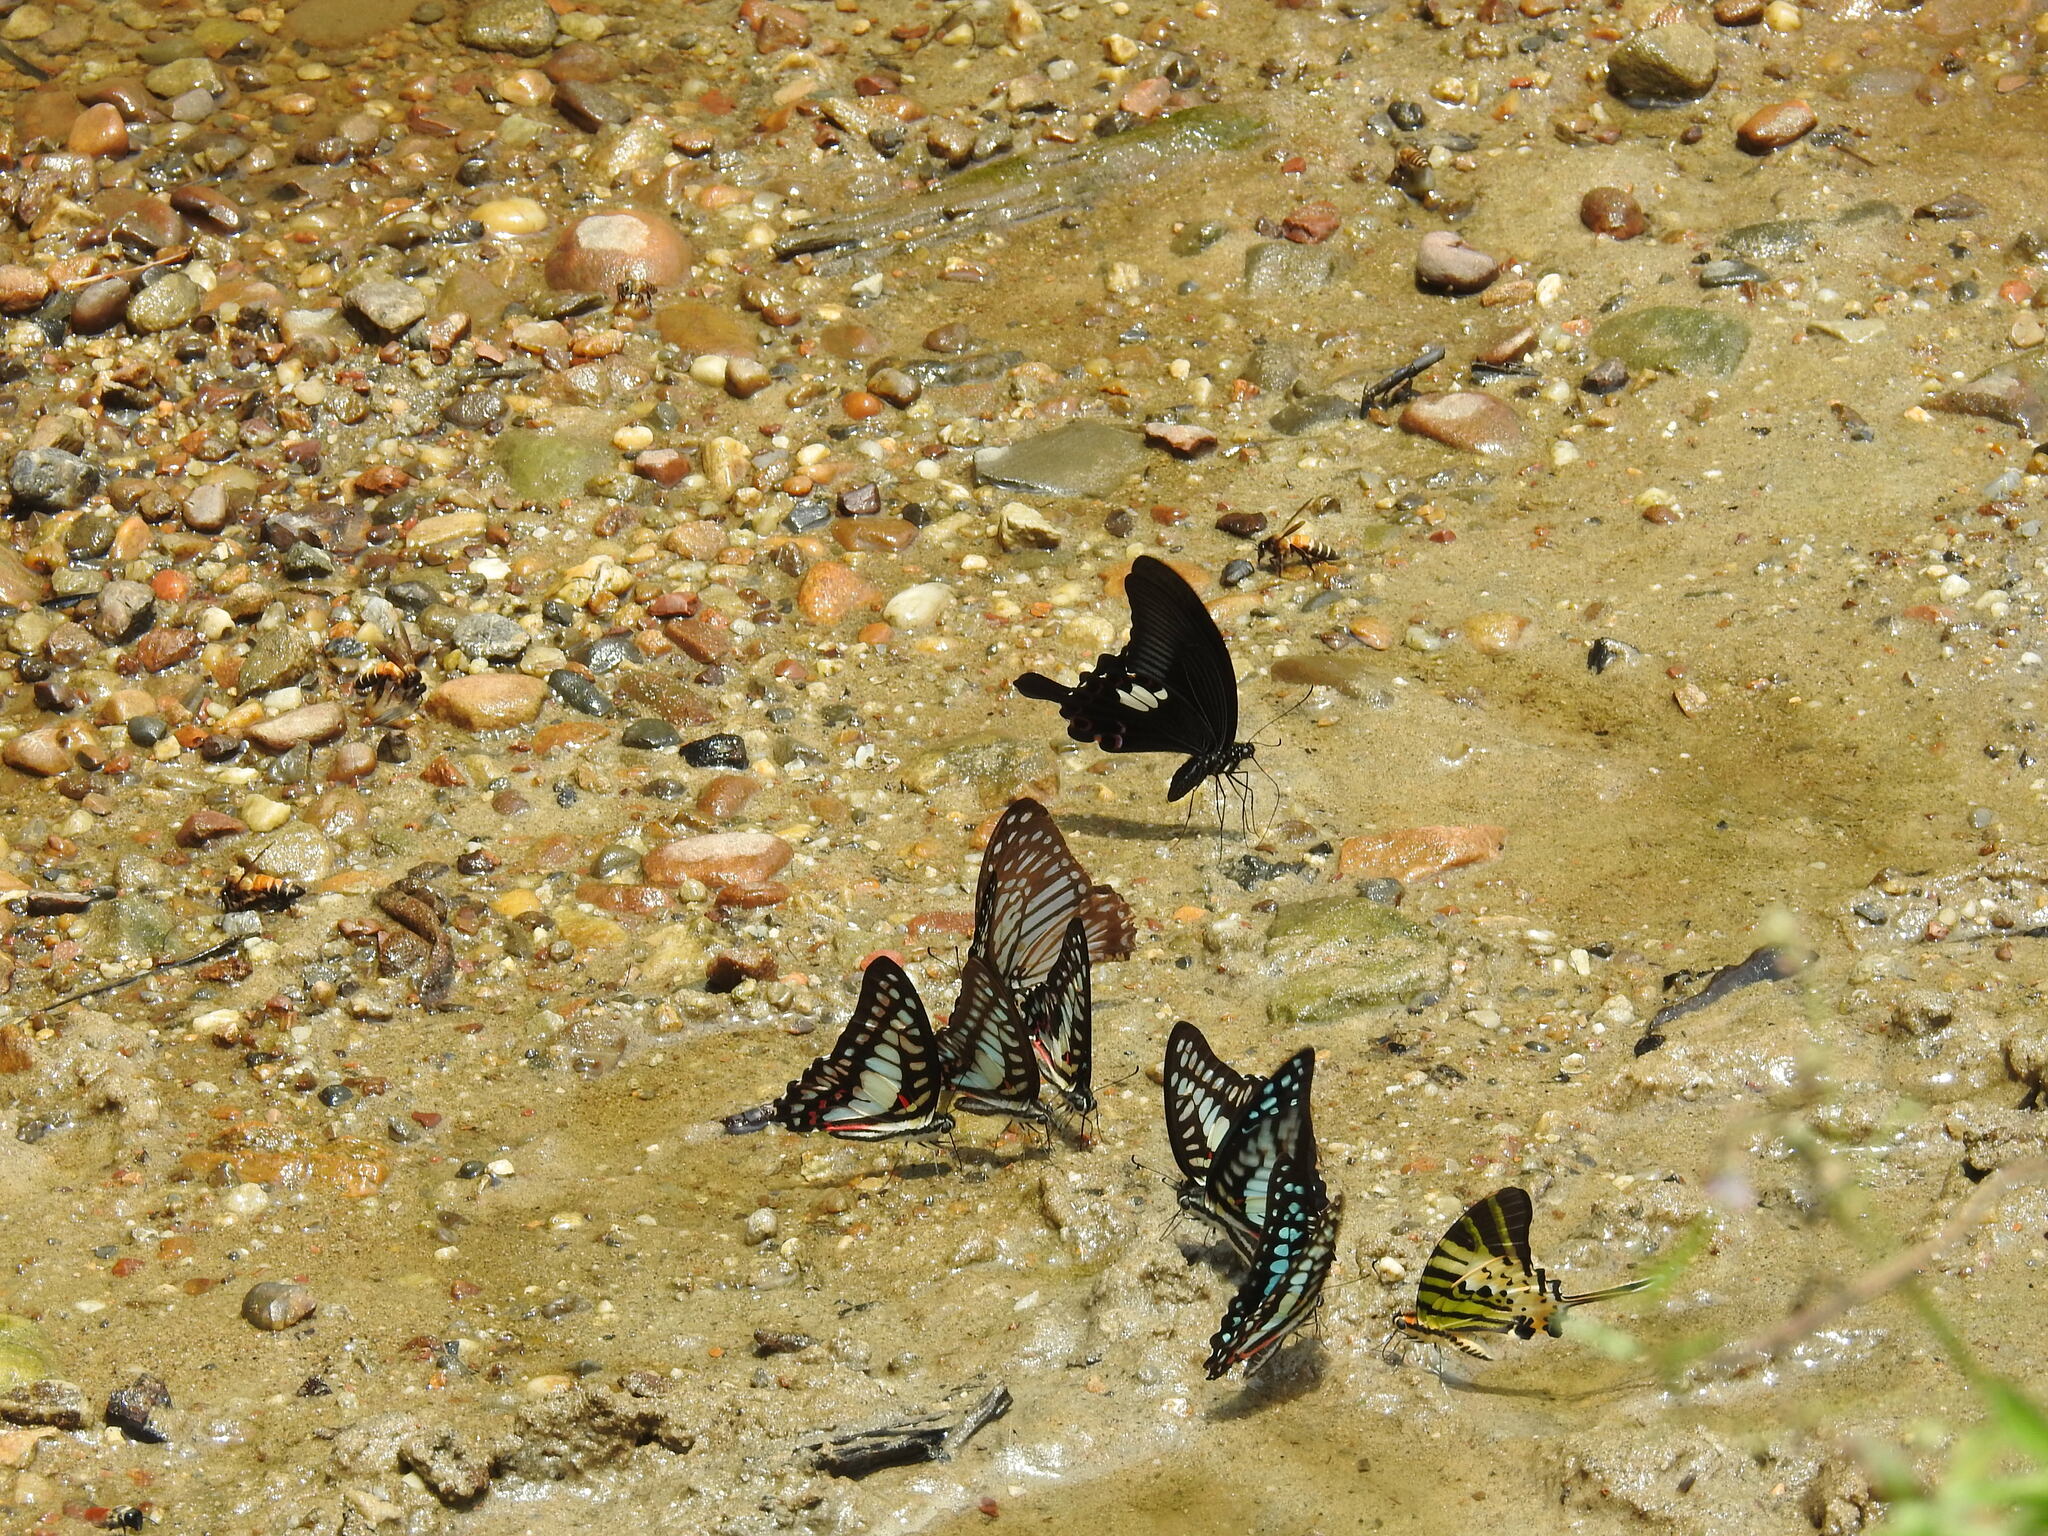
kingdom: Animalia
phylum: Arthropoda
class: Insecta
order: Lepidoptera
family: Papilionidae
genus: Graphium
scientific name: Graphium doson
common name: Common jay
